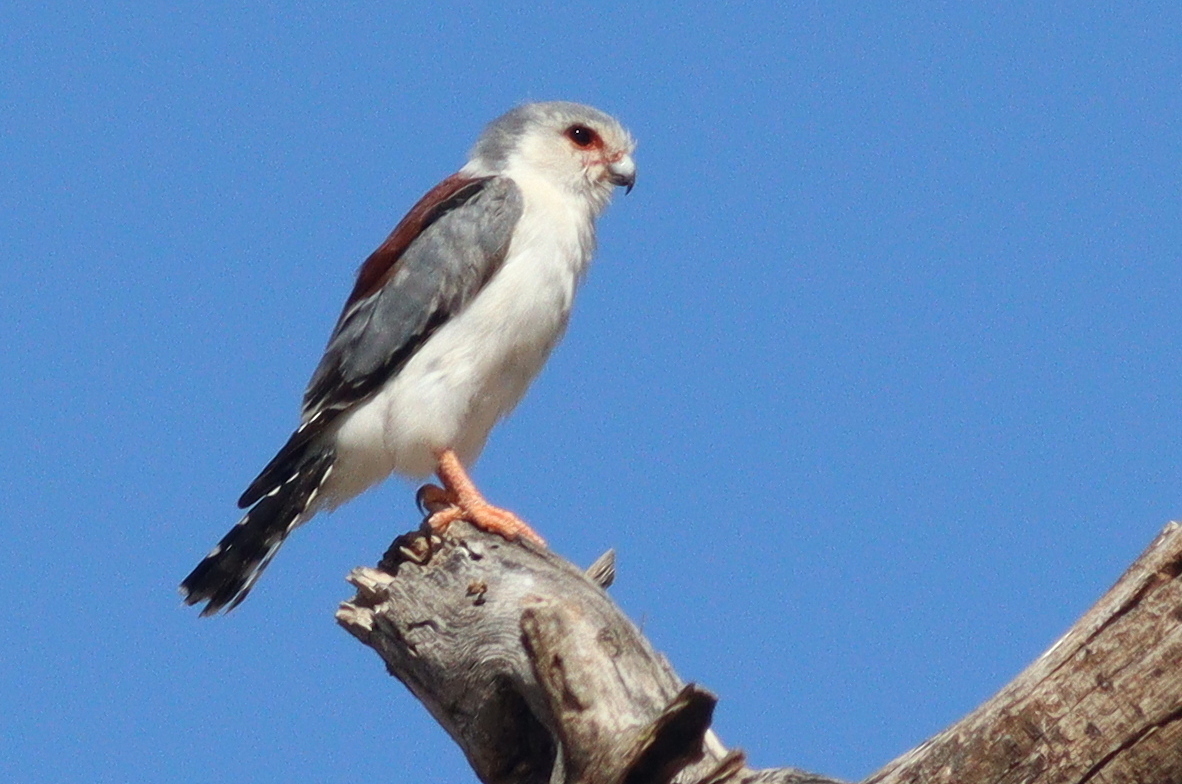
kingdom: Animalia
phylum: Chordata
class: Aves
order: Falconiformes
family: Falconidae
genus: Polihierax
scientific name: Polihierax semitorquatus
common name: Pygmy falcon
